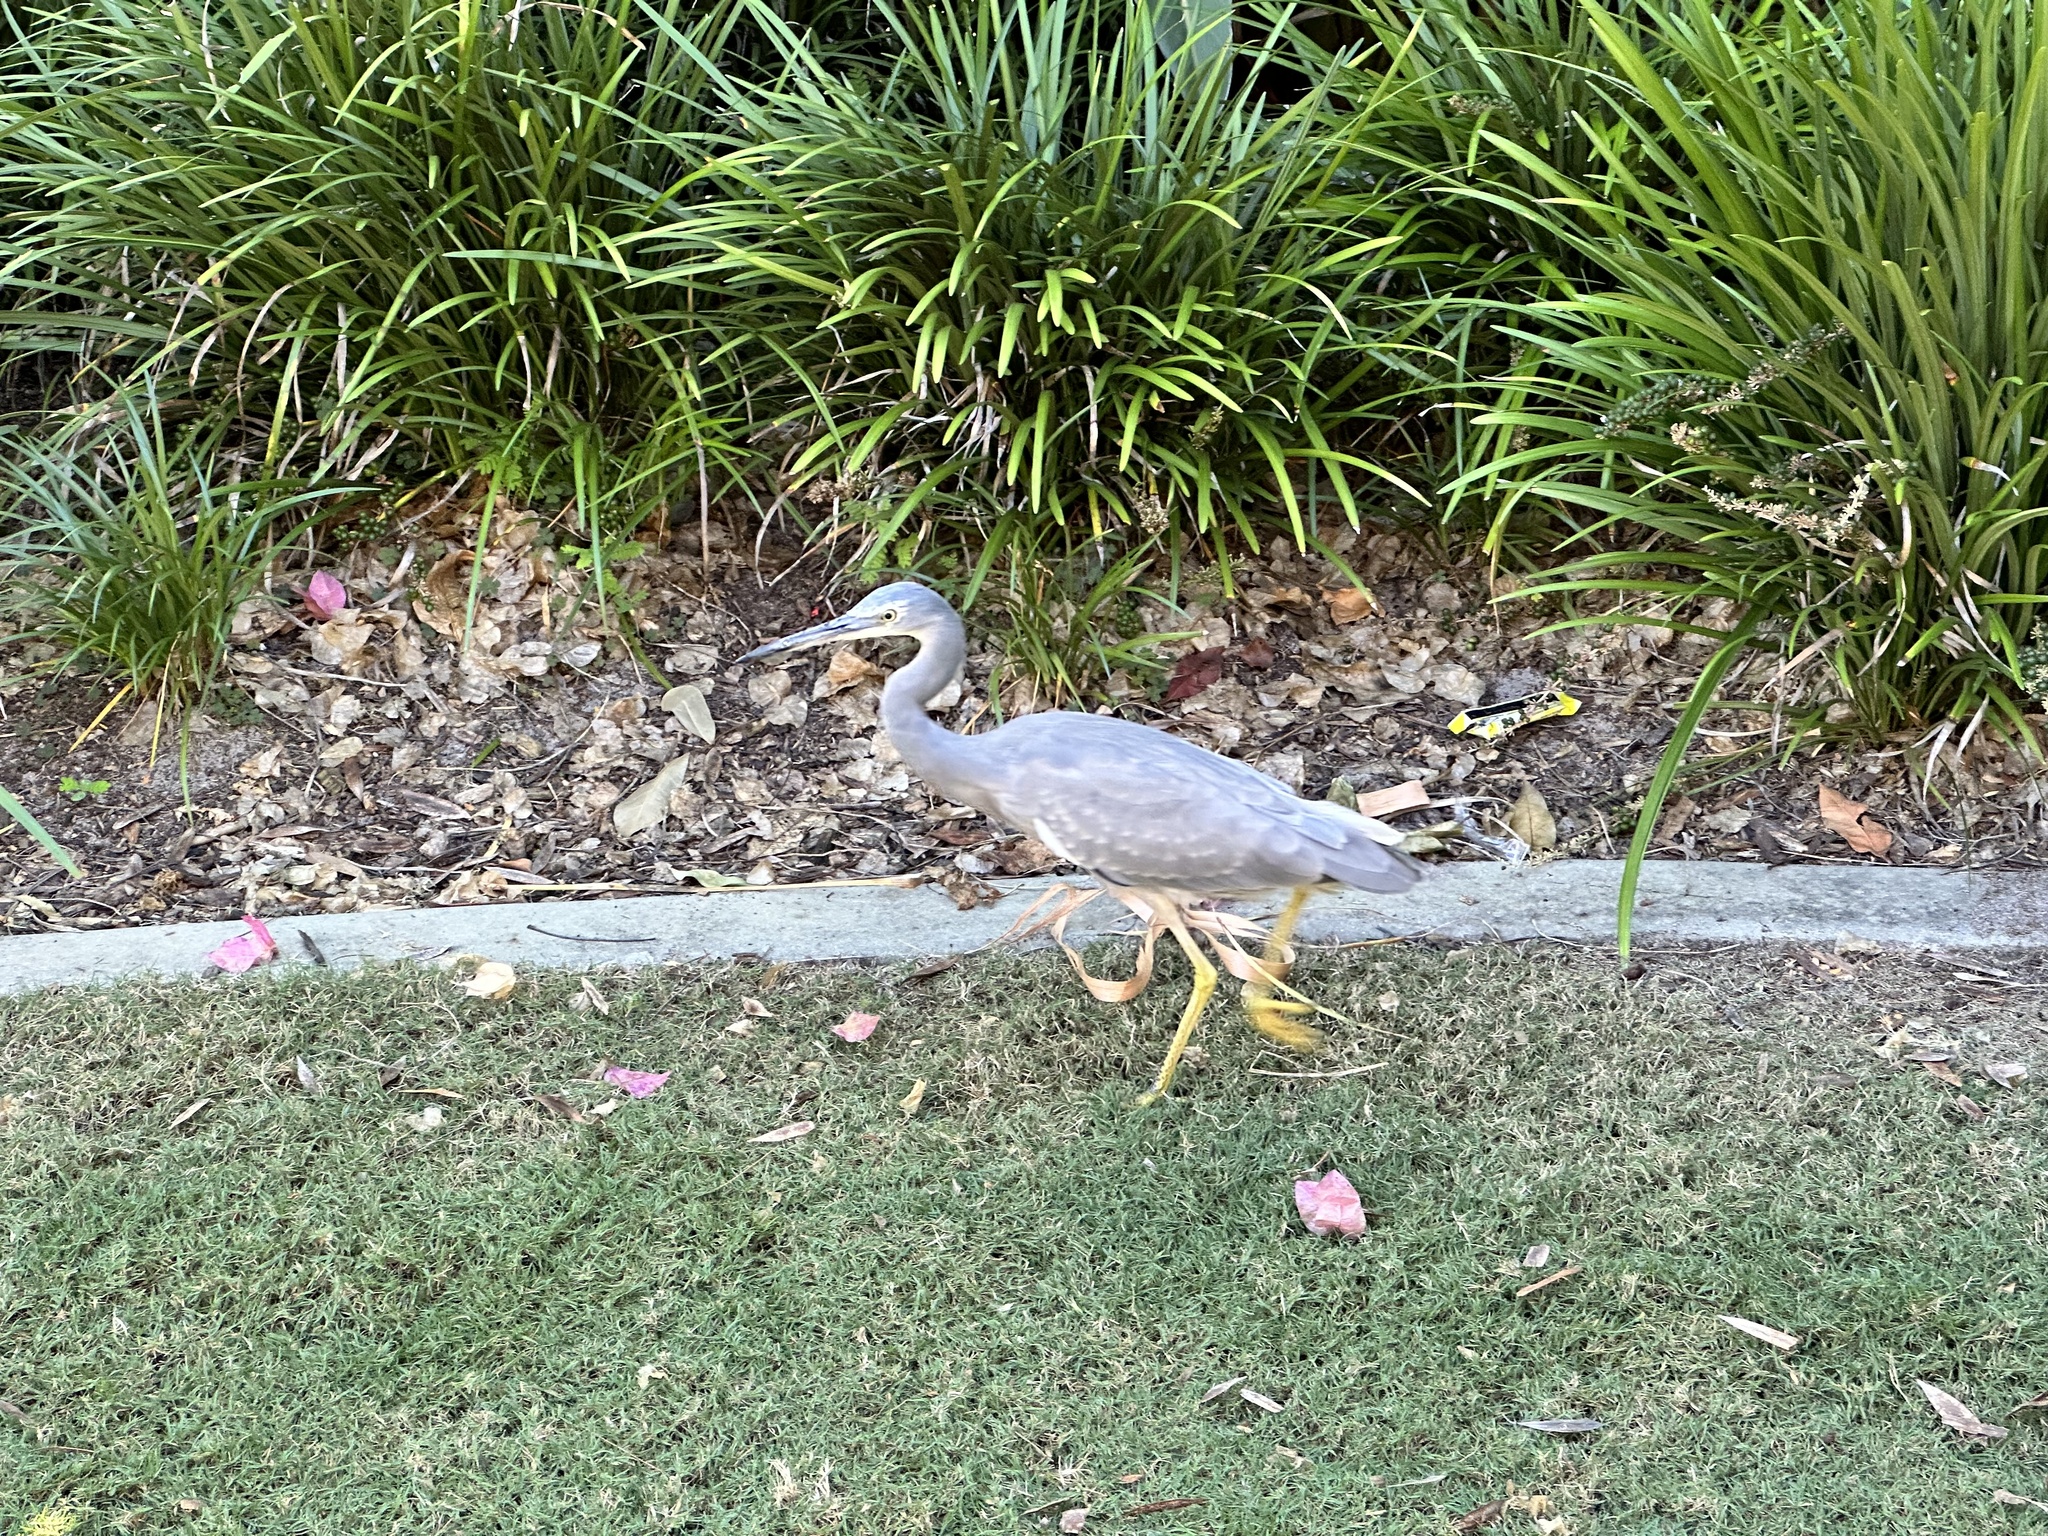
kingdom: Animalia
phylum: Chordata
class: Aves
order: Pelecaniformes
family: Ardeidae
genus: Egretta
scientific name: Egretta novaehollandiae
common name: White-faced heron
